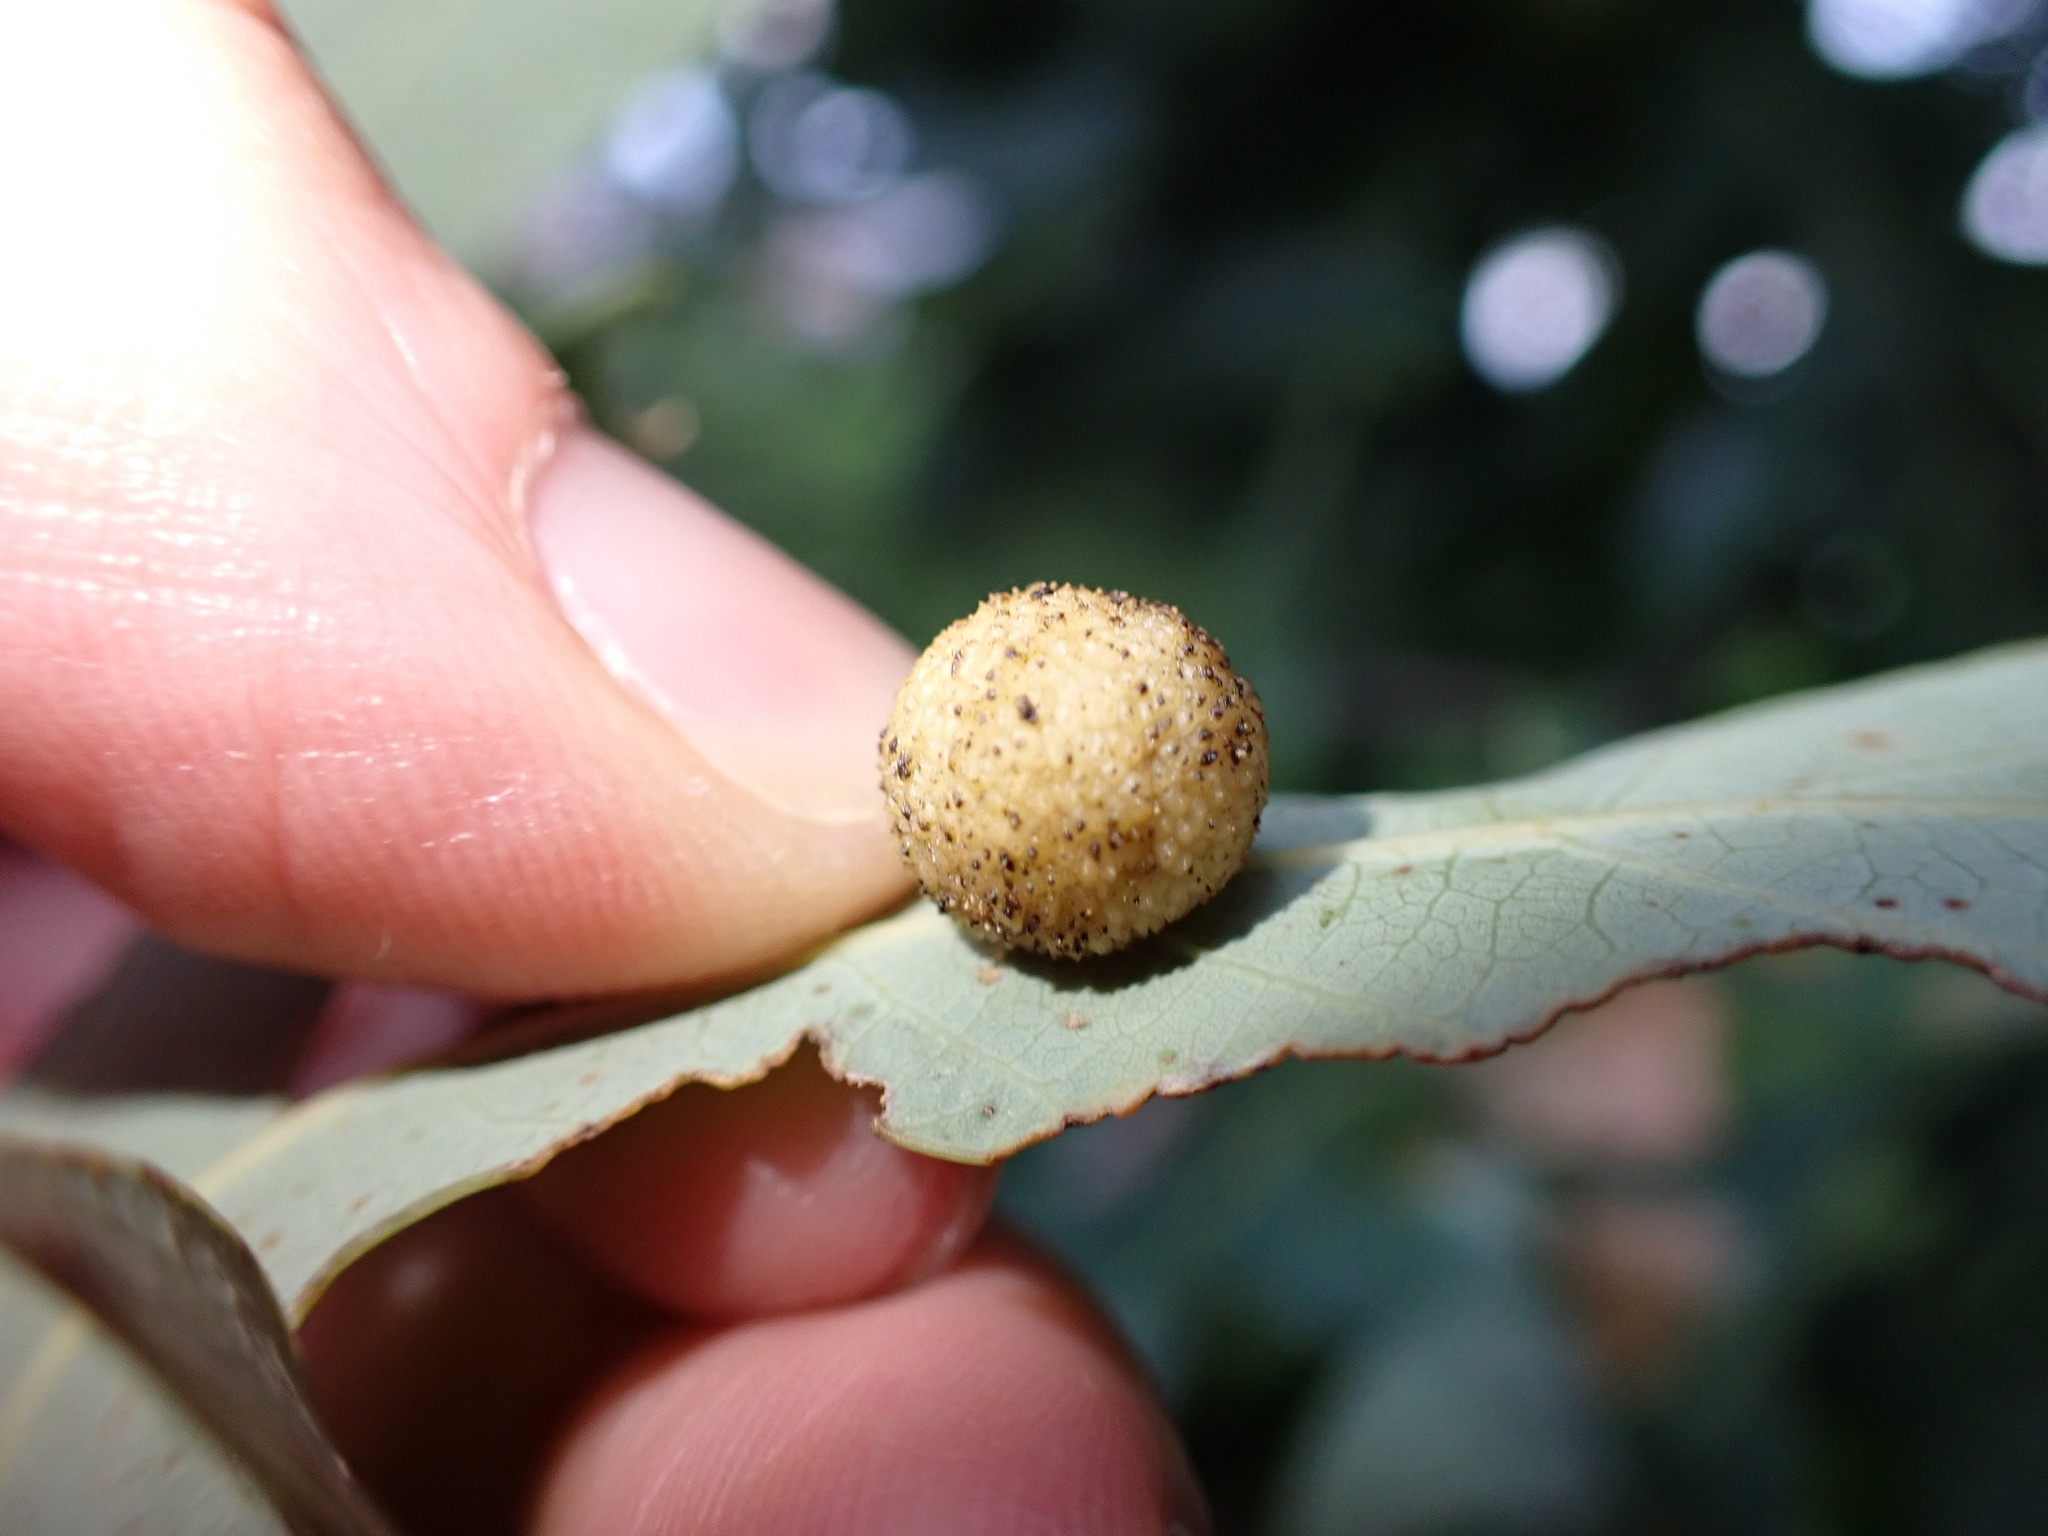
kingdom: Animalia
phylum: Arthropoda
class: Insecta
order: Hymenoptera
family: Cynipidae
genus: Acraspis
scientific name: Acraspis
